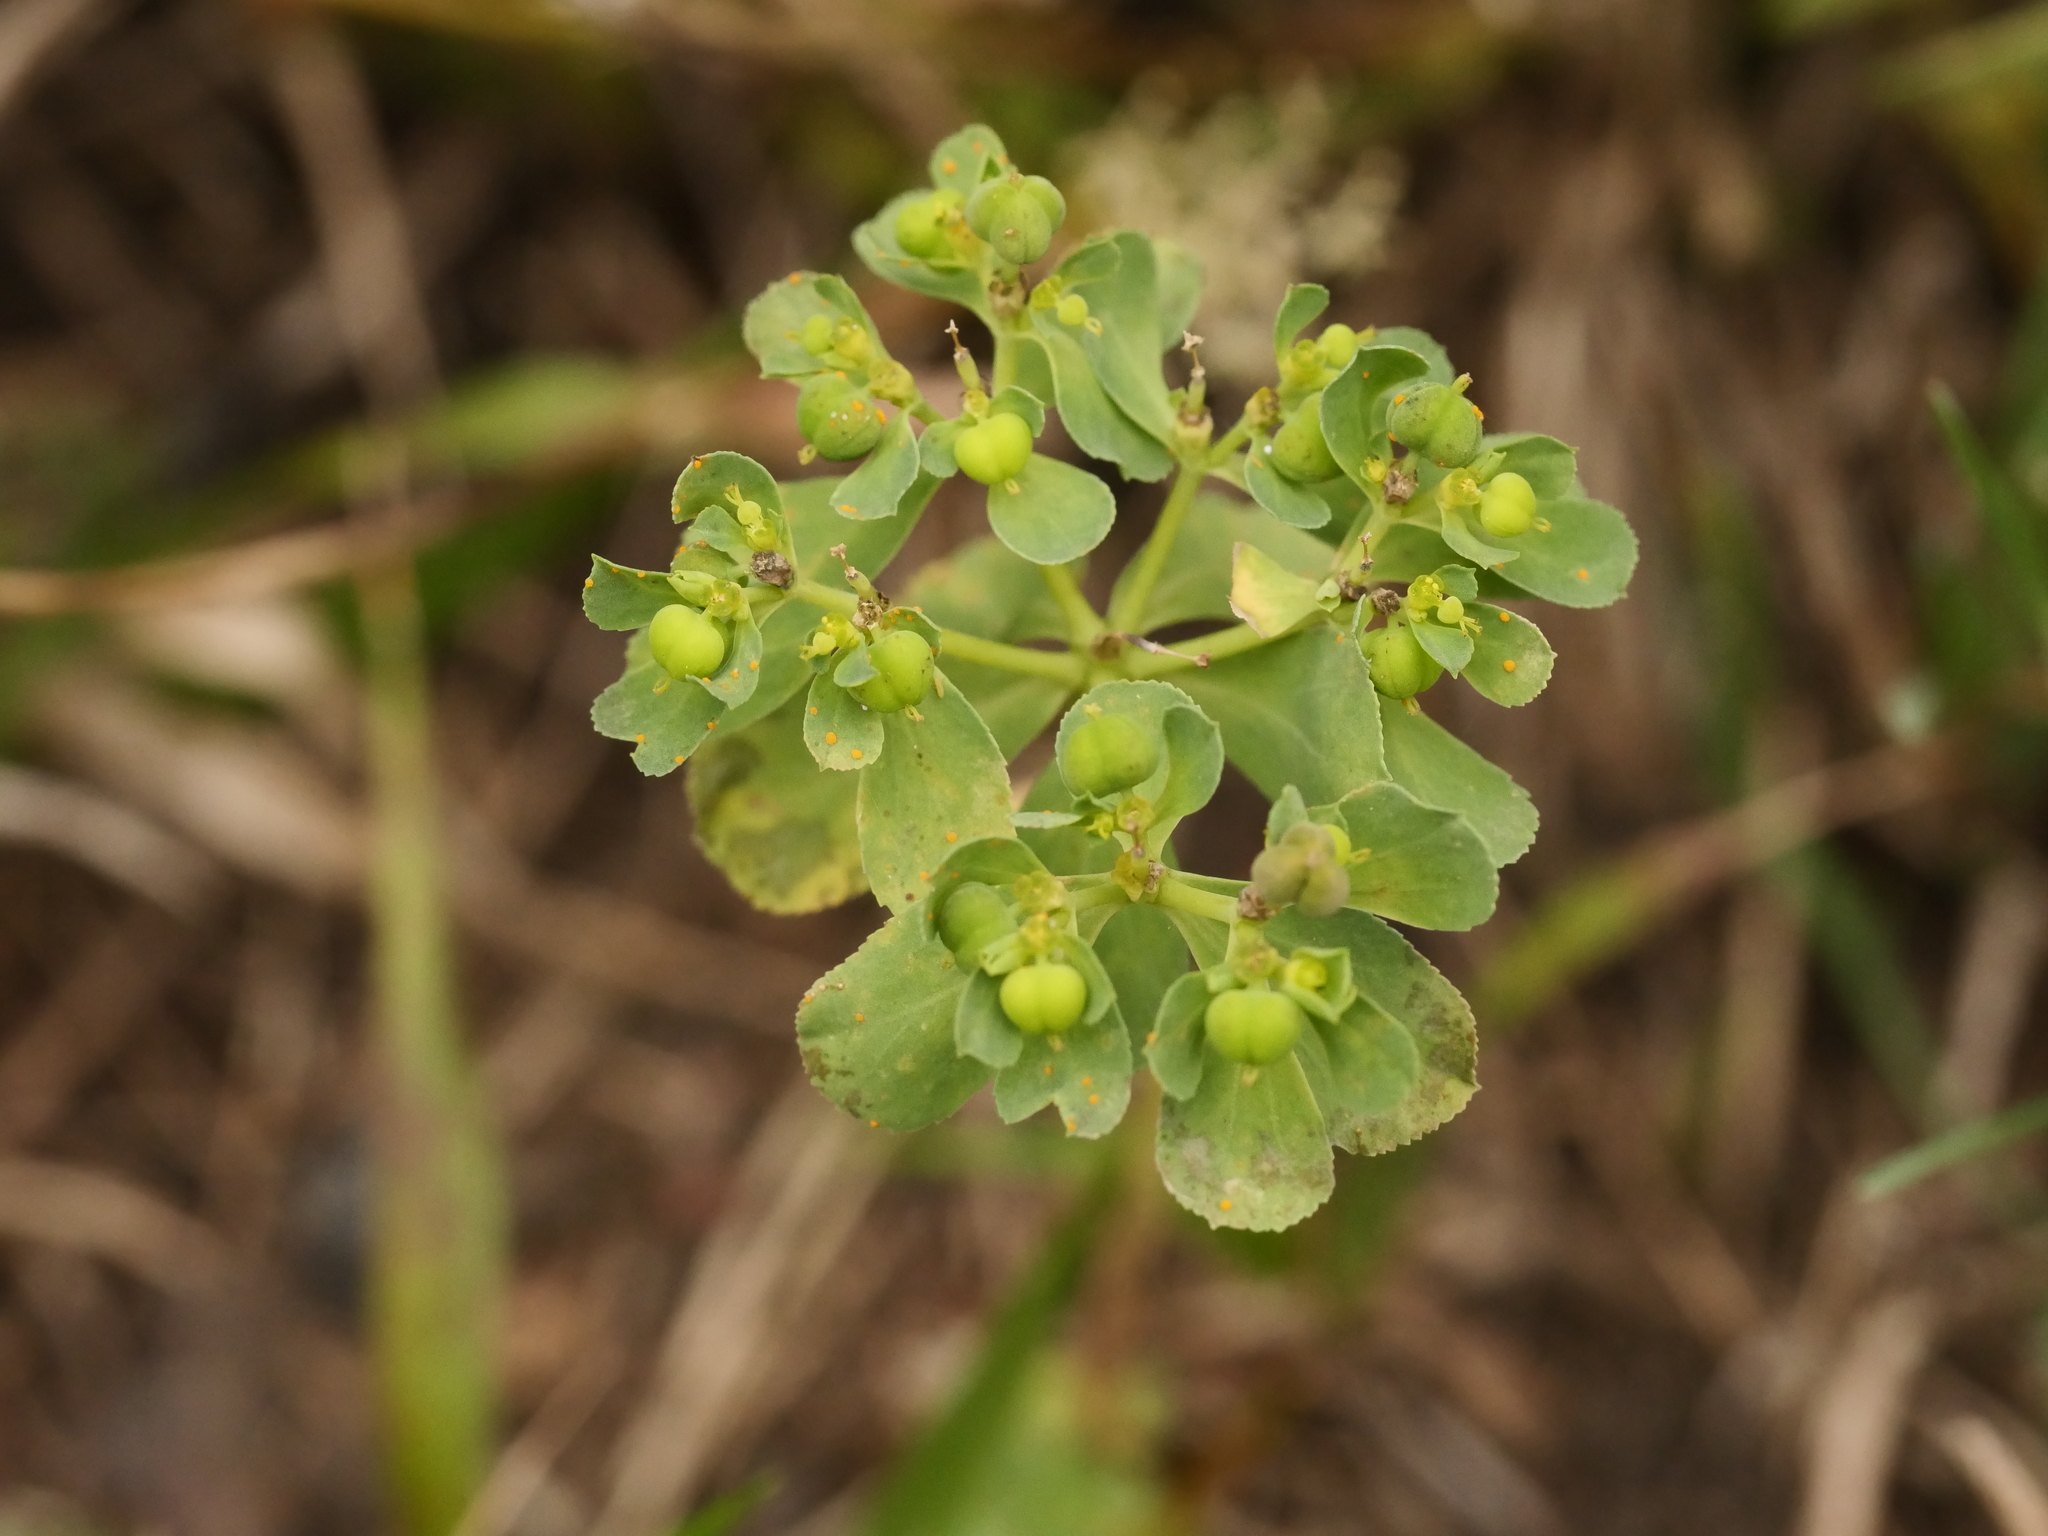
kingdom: Plantae
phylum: Tracheophyta
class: Magnoliopsida
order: Malpighiales
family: Euphorbiaceae
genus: Euphorbia
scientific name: Euphorbia helioscopia
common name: Sun spurge
